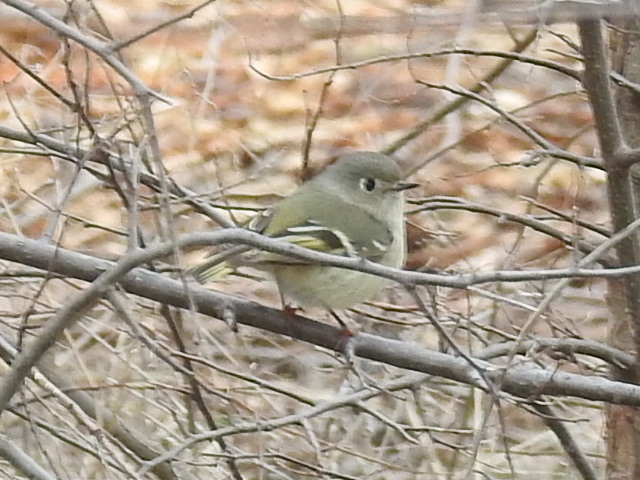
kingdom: Animalia
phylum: Chordata
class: Aves
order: Passeriformes
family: Regulidae
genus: Regulus
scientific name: Regulus calendula
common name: Ruby-crowned kinglet
